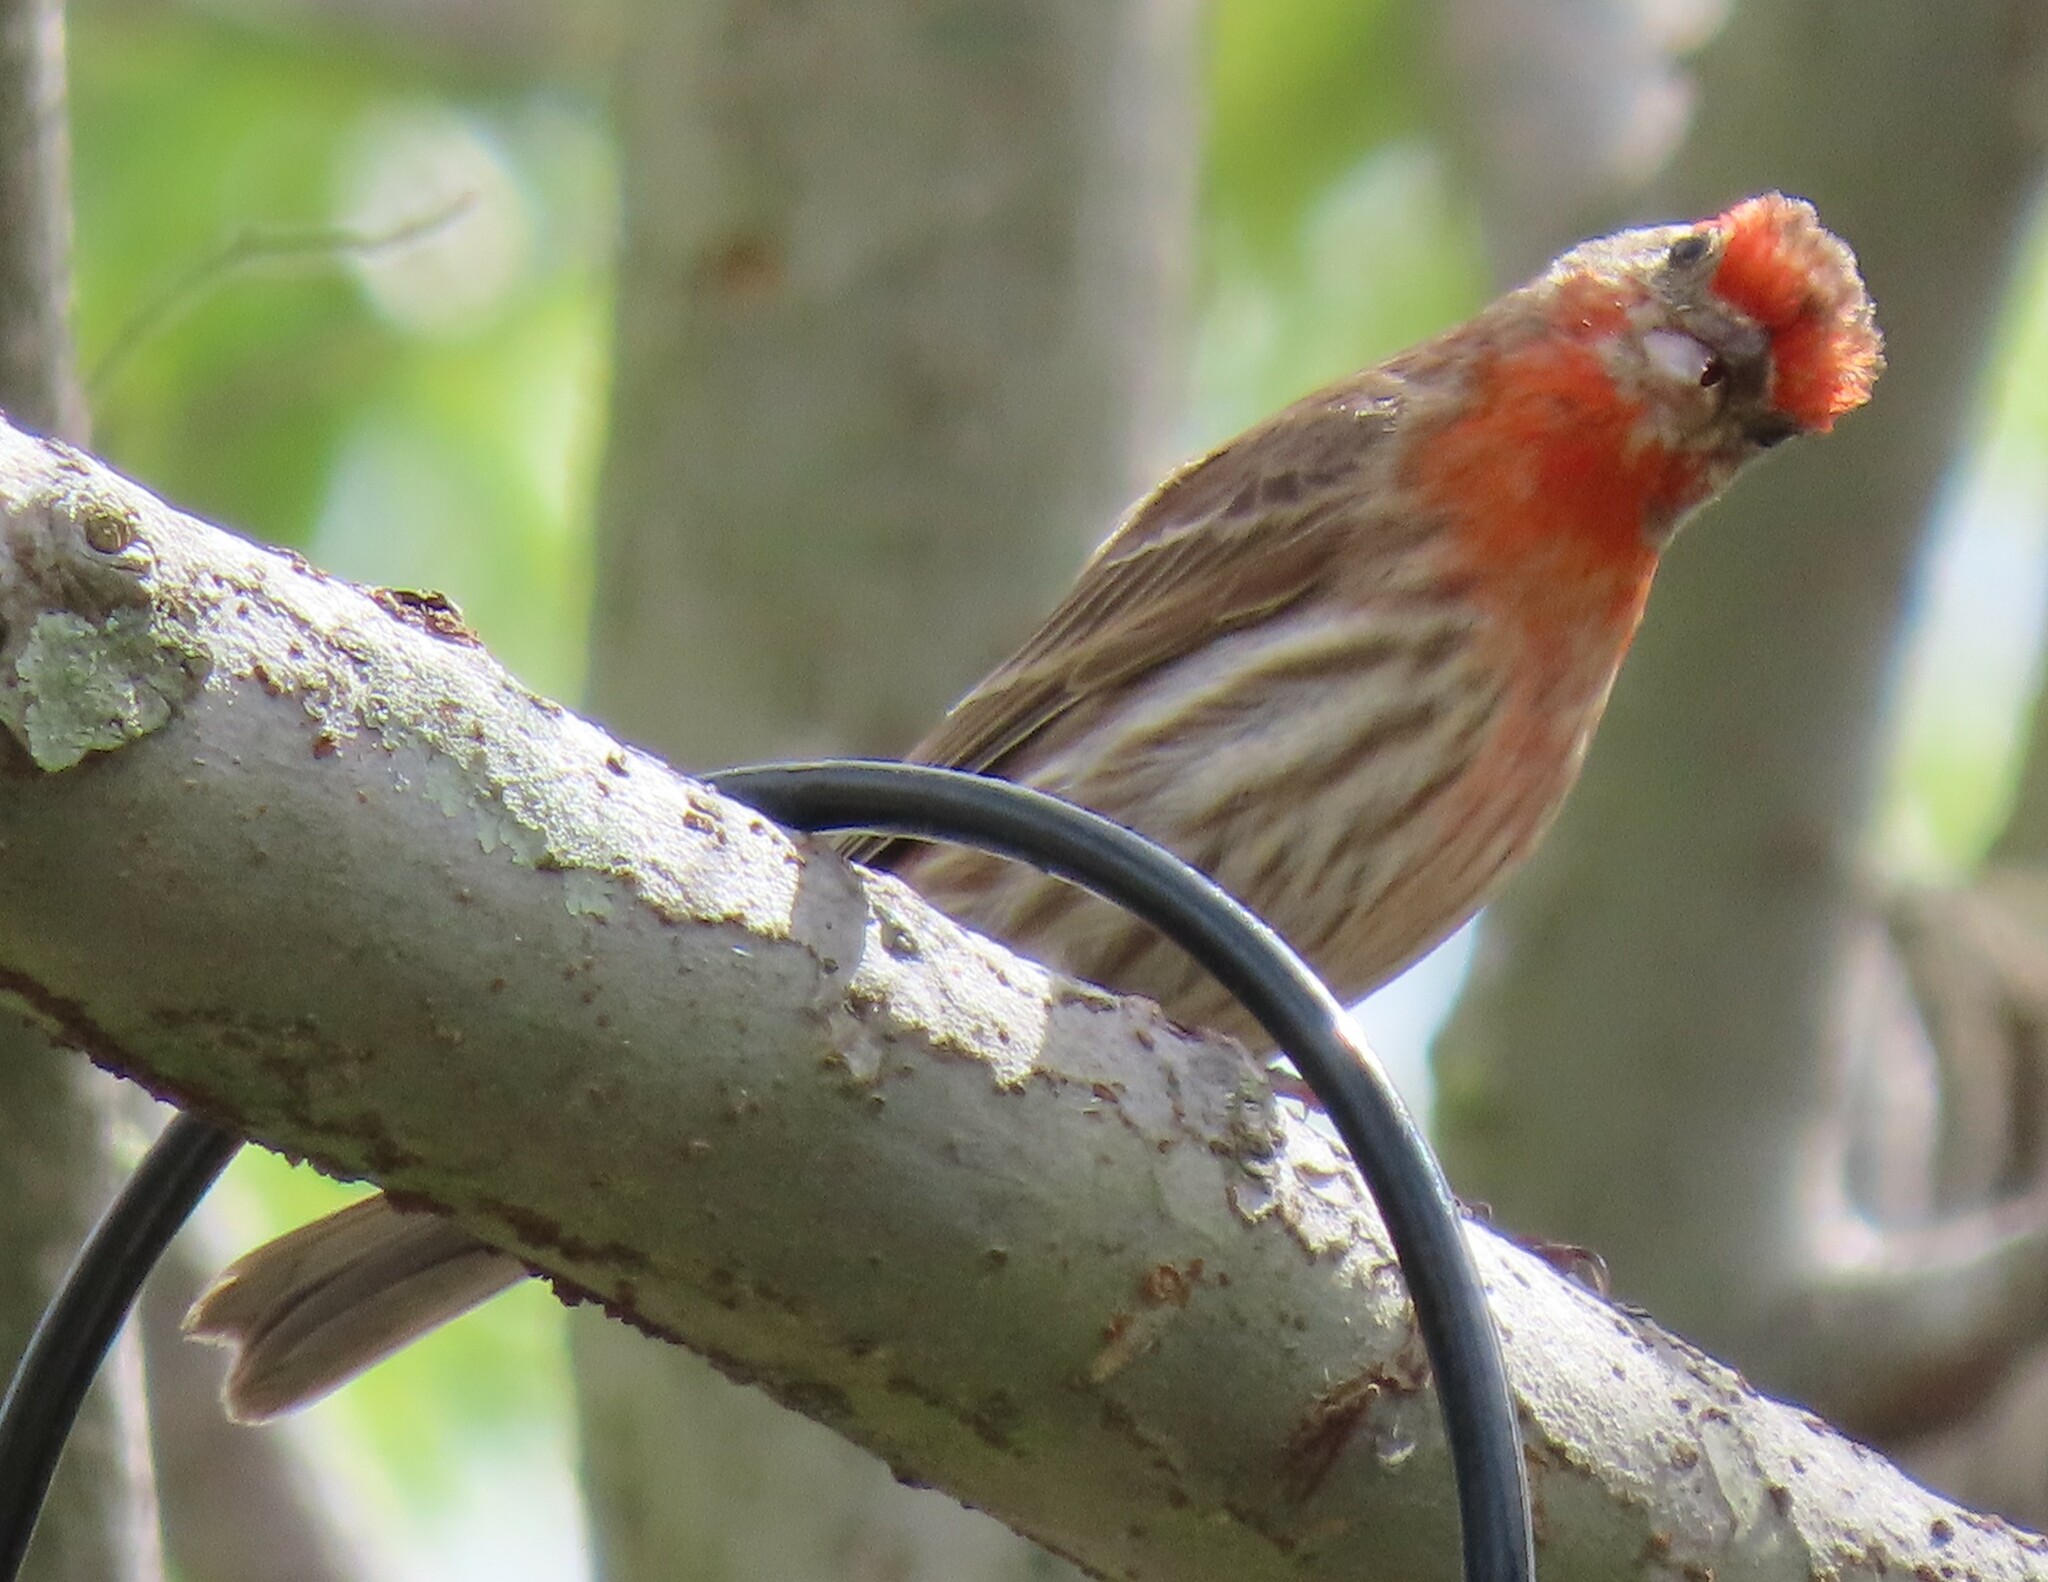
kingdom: Animalia
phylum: Chordata
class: Aves
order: Passeriformes
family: Fringillidae
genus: Haemorhous
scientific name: Haemorhous mexicanus
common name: House finch
